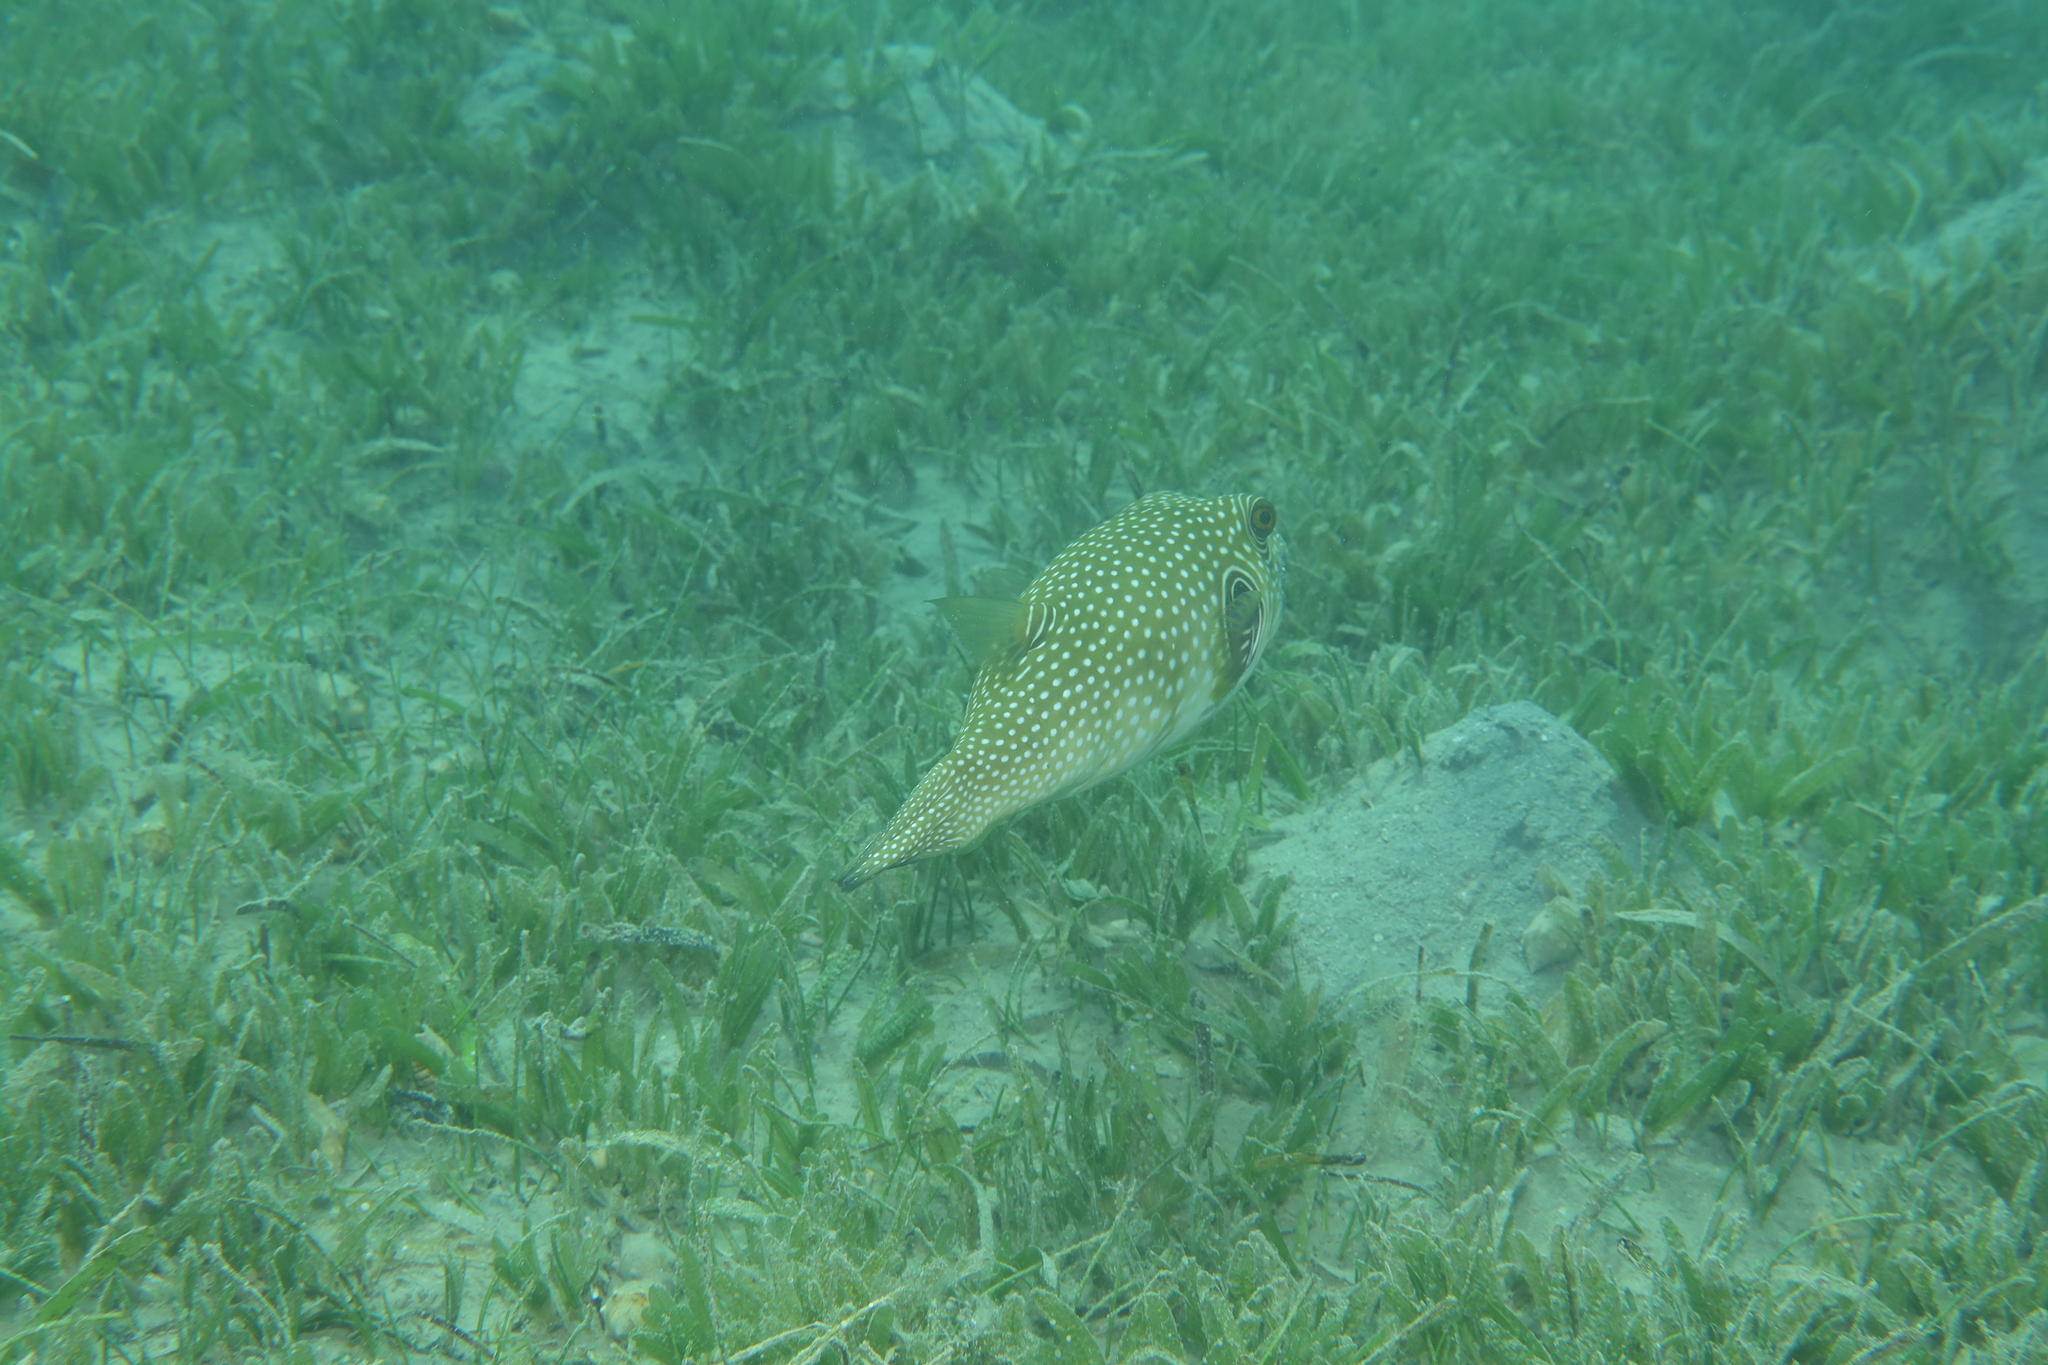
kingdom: Animalia
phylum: Chordata
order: Tetraodontiformes
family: Tetraodontidae
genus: Arothron
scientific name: Arothron hispidus
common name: Stripebelly puffer
